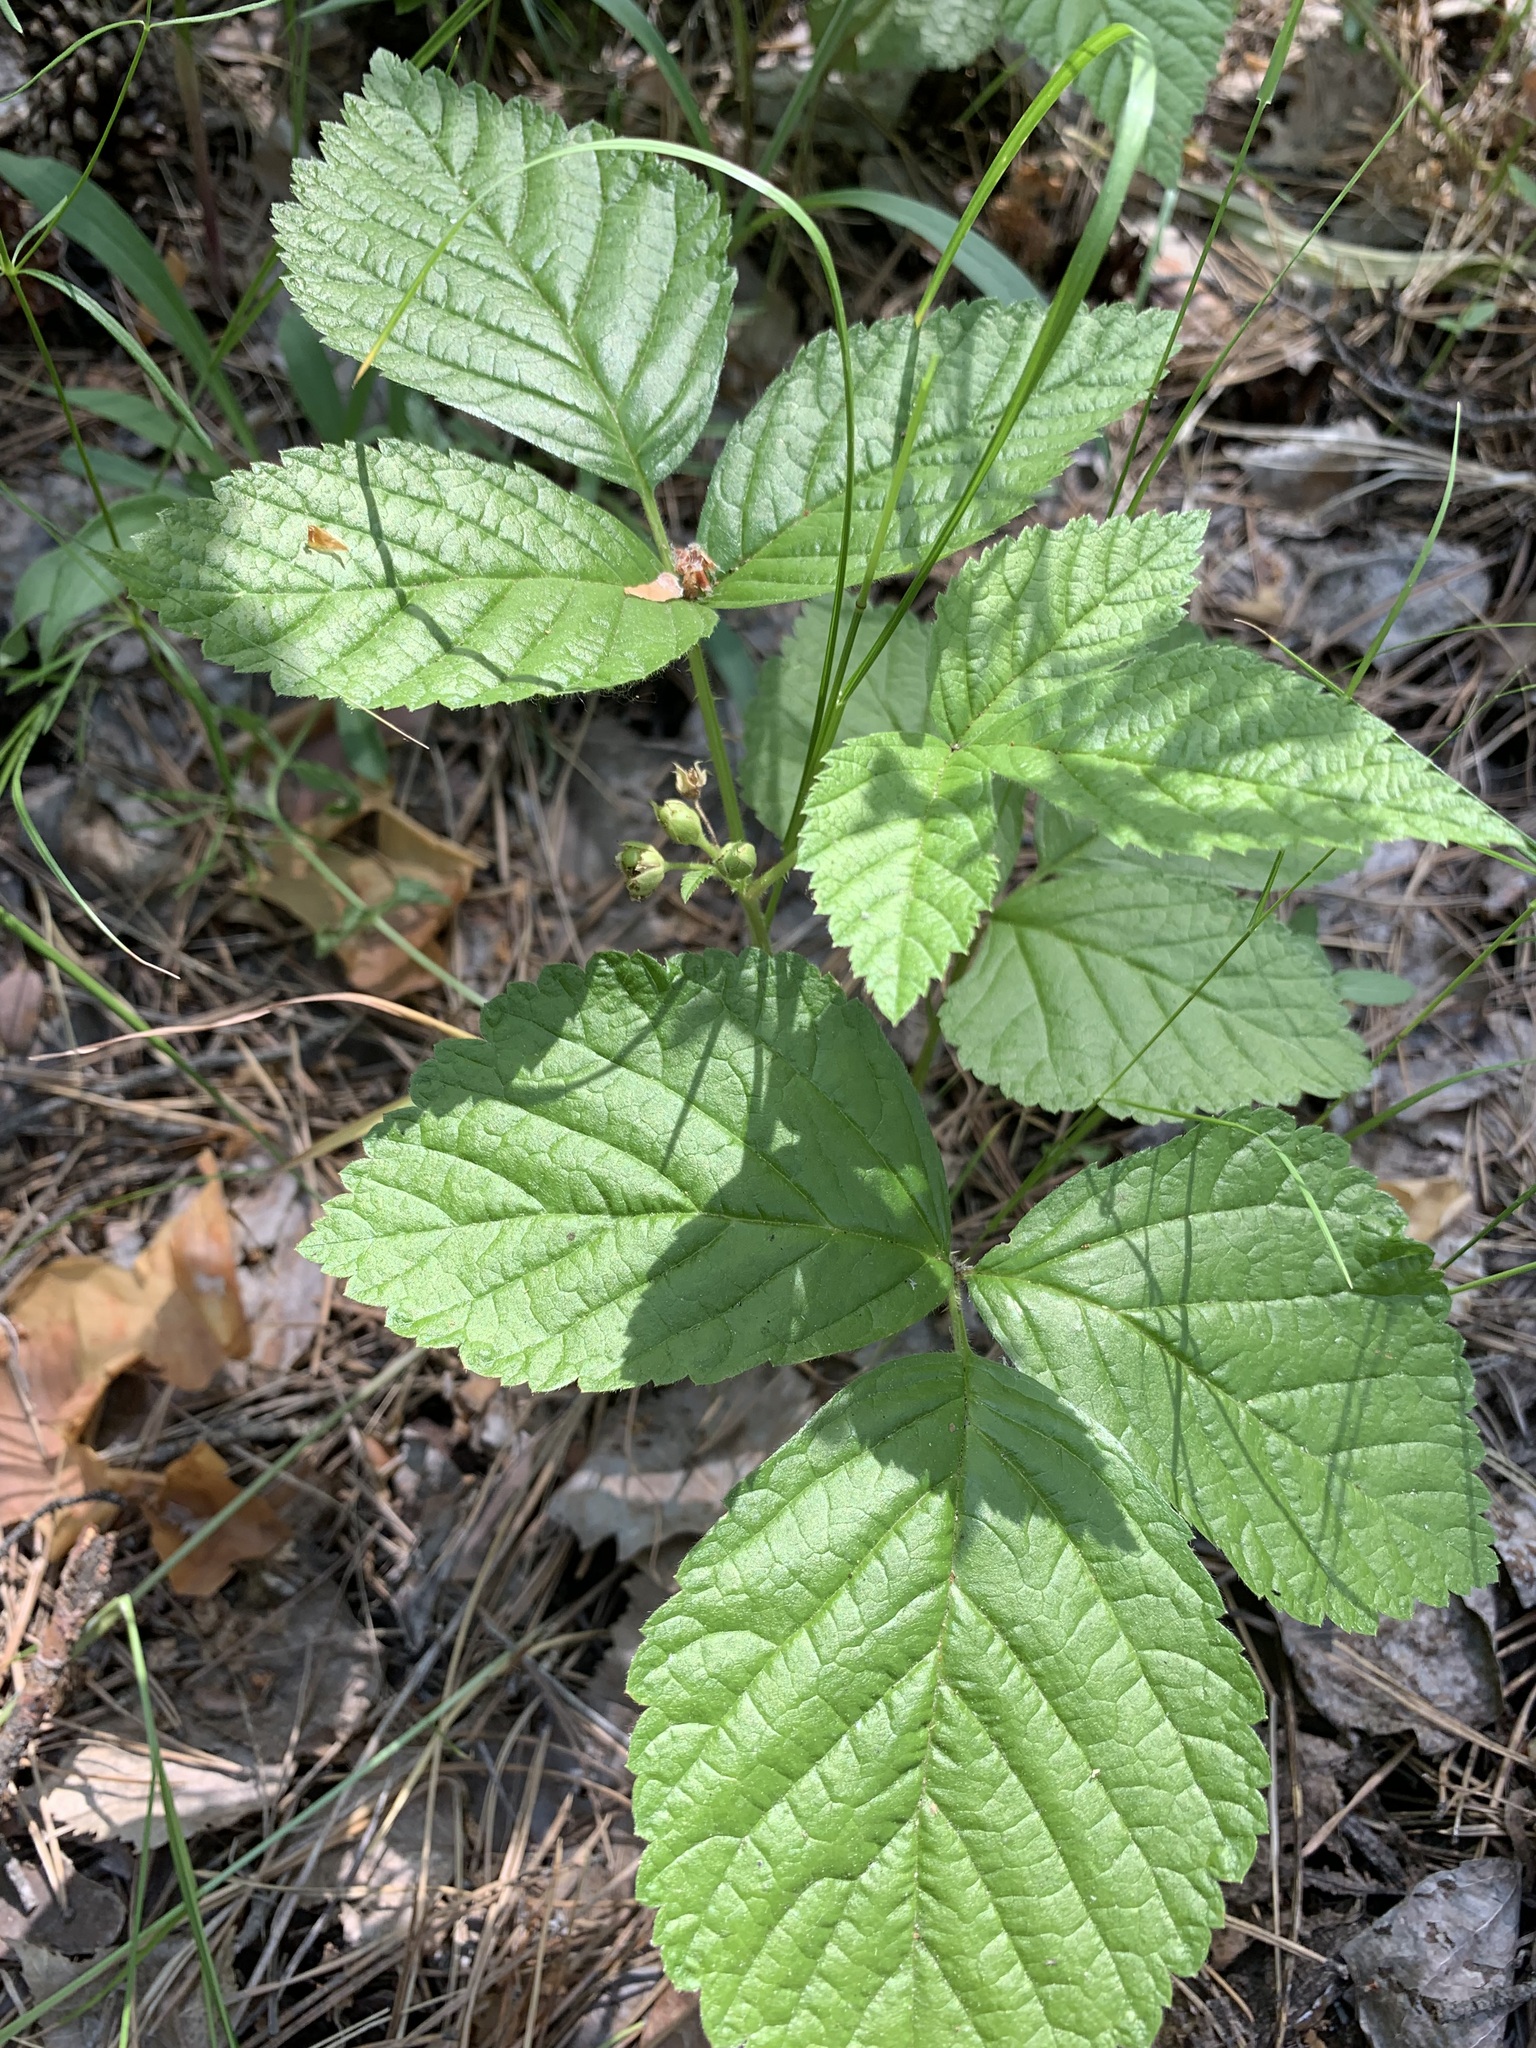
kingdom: Plantae
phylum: Tracheophyta
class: Magnoliopsida
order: Rosales
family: Rosaceae
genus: Rubus
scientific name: Rubus saxatilis
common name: Stone bramble
